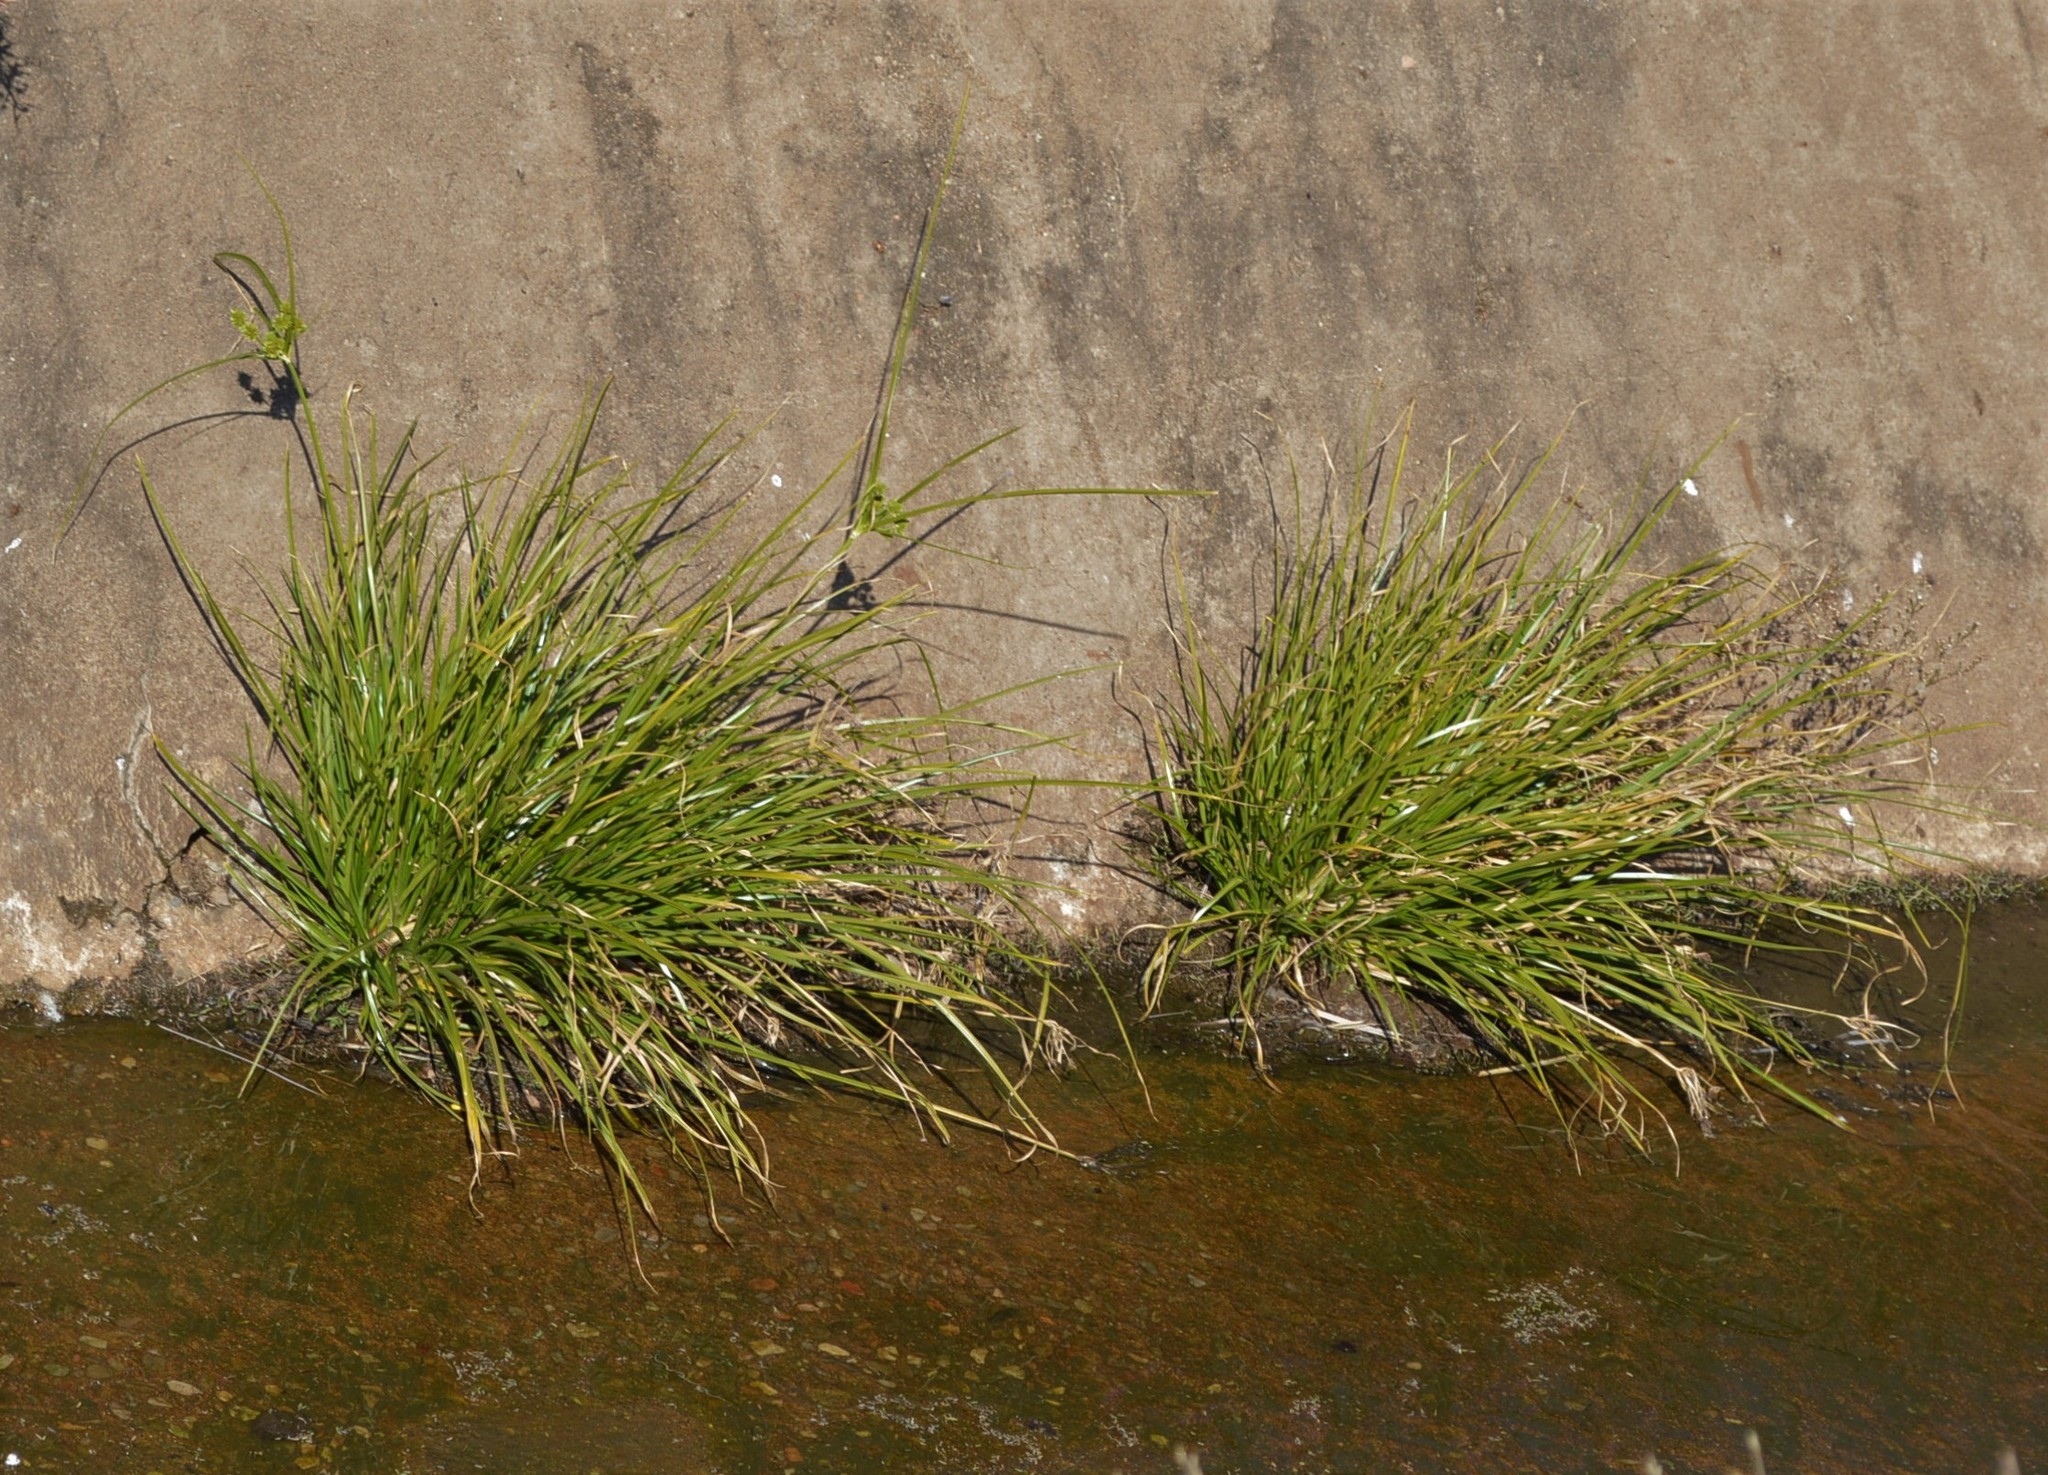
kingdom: Plantae
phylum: Tracheophyta
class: Liliopsida
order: Poales
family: Cyperaceae
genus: Cyperus
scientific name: Cyperus eragrostis
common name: Tall flatsedge
